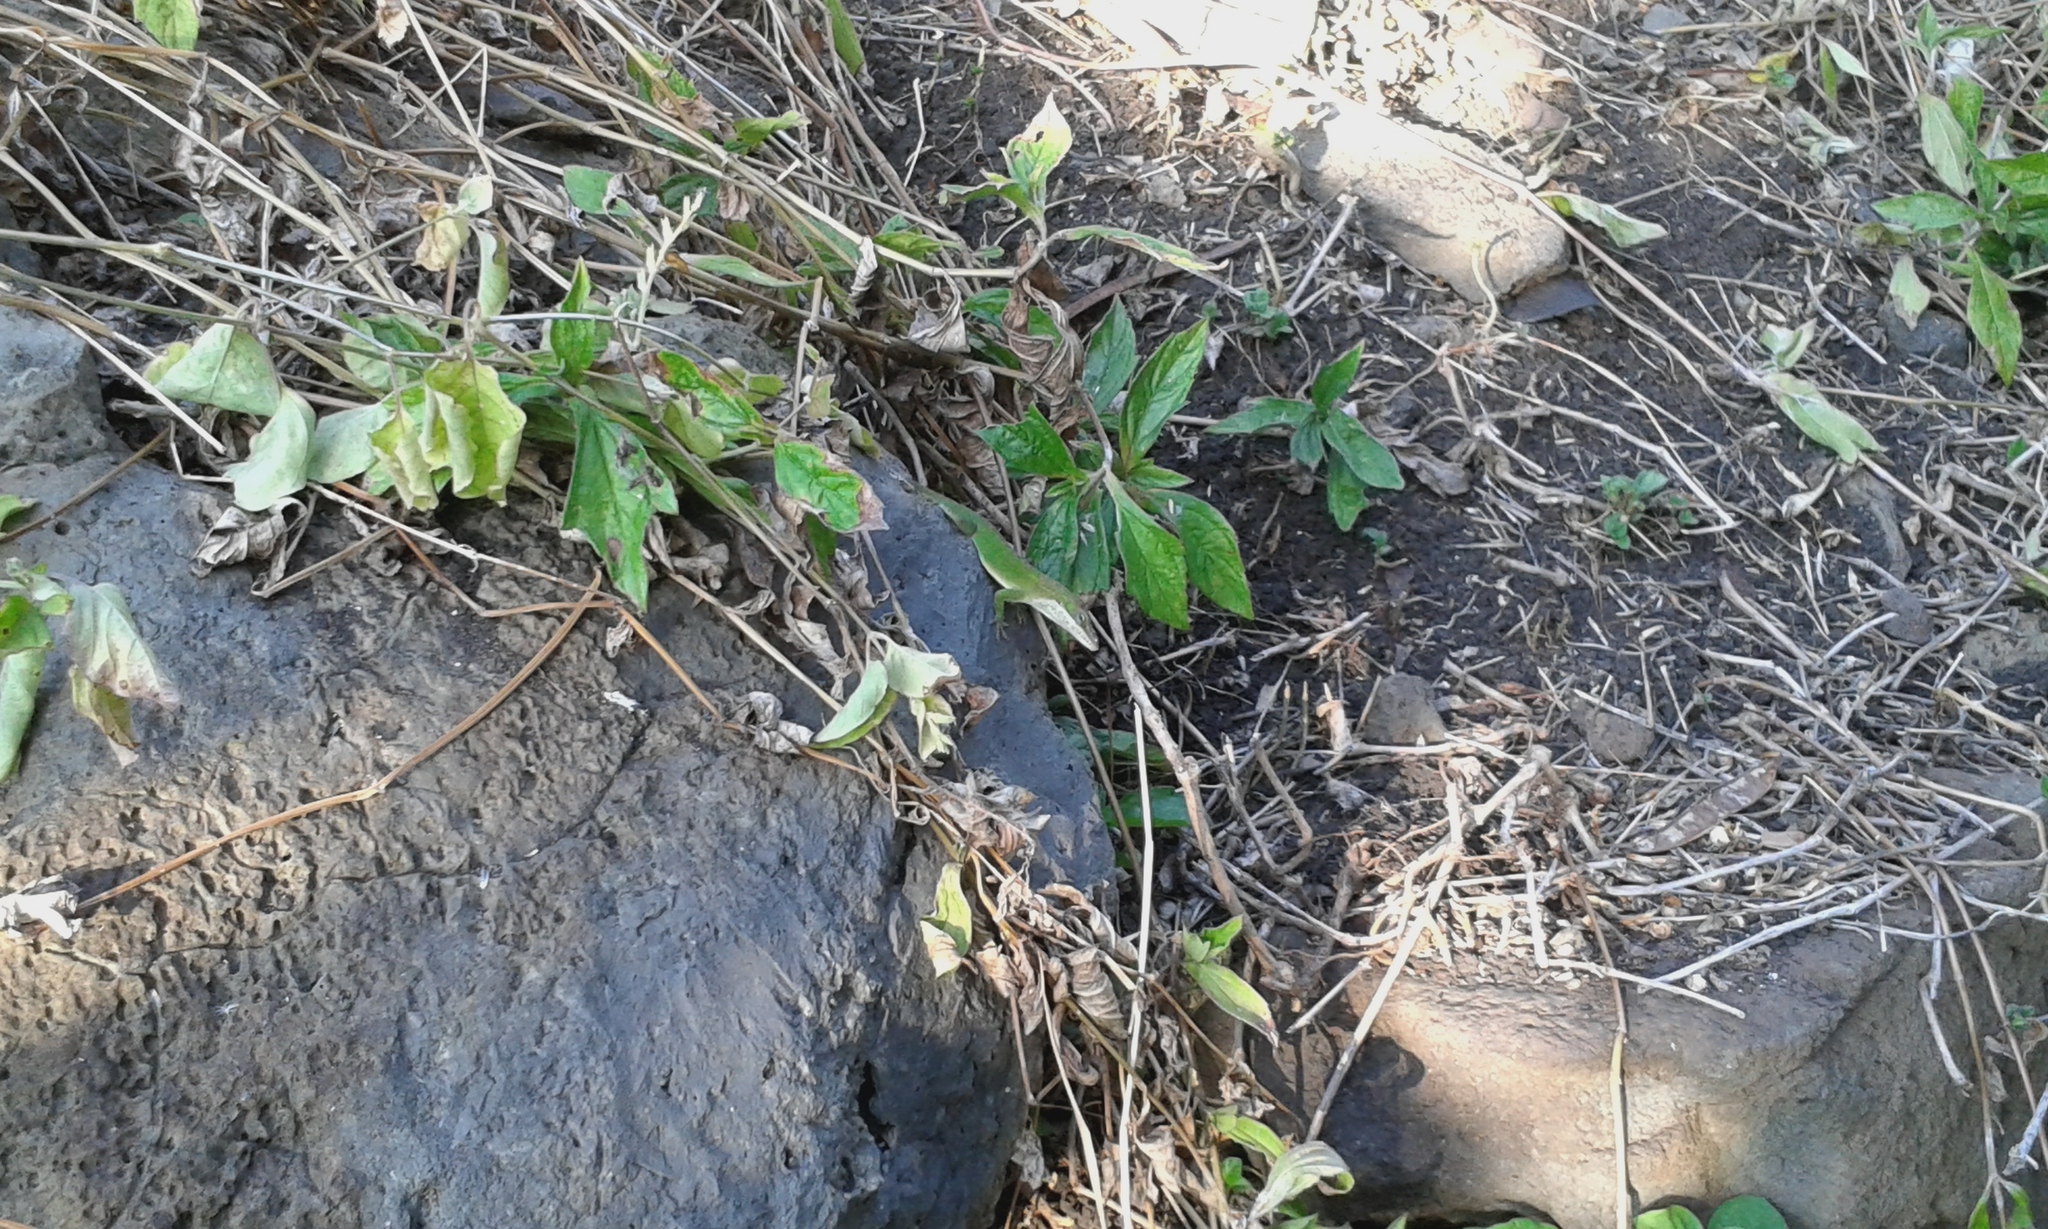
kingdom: Animalia
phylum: Chordata
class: Squamata
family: Dactyloidae
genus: Anolis
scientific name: Anolis carolinensis
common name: Green anole
